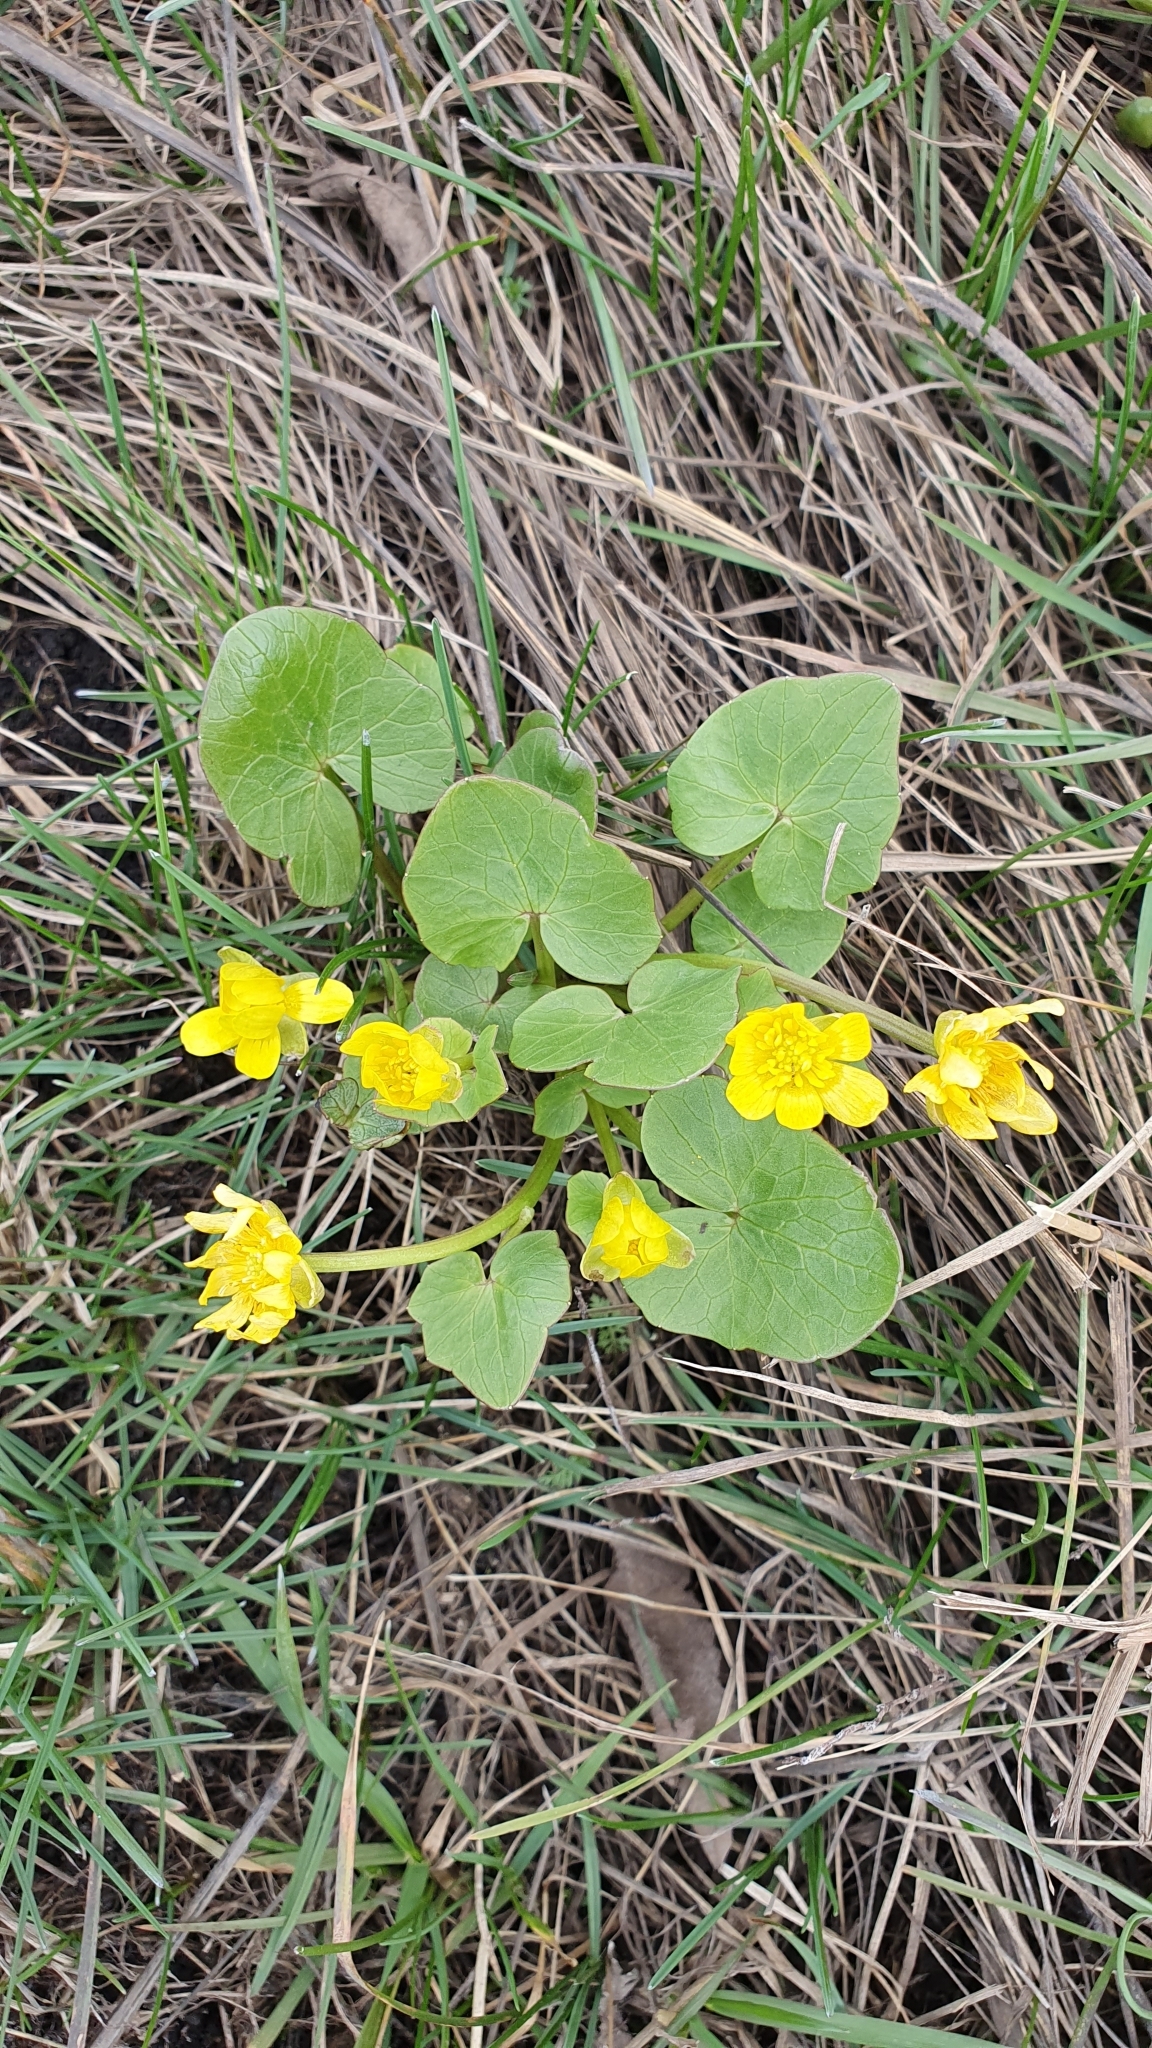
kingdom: Plantae
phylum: Tracheophyta
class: Magnoliopsida
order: Ranunculales
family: Ranunculaceae
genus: Ficaria
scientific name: Ficaria verna
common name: Lesser celandine
